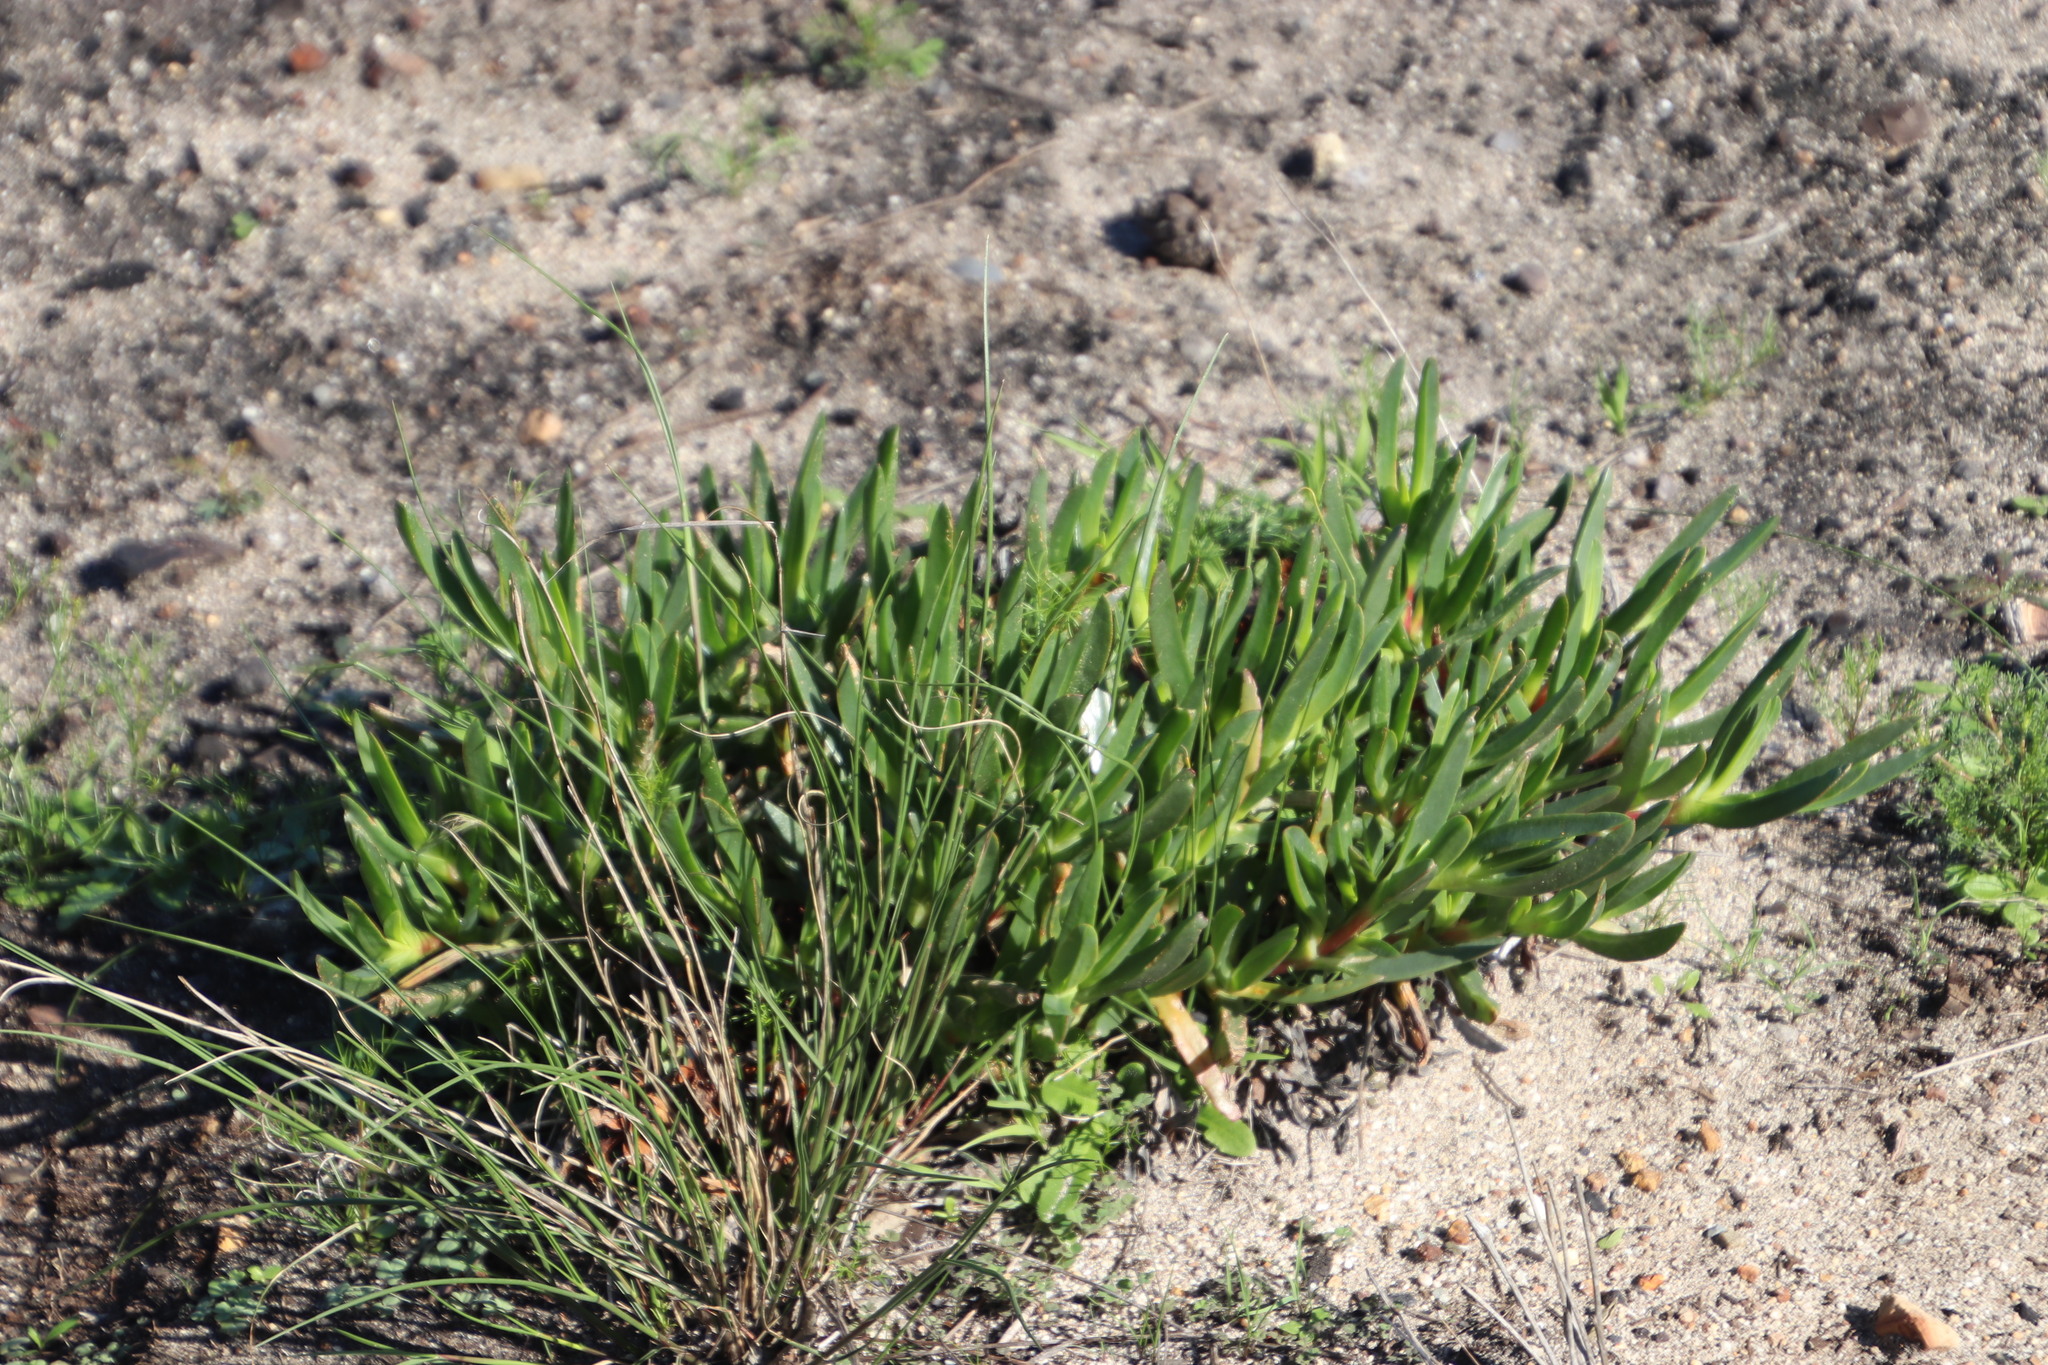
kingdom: Plantae
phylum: Tracheophyta
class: Magnoliopsida
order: Caryophyllales
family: Aizoaceae
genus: Carpobrotus
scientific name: Carpobrotus edulis
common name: Hottentot-fig
